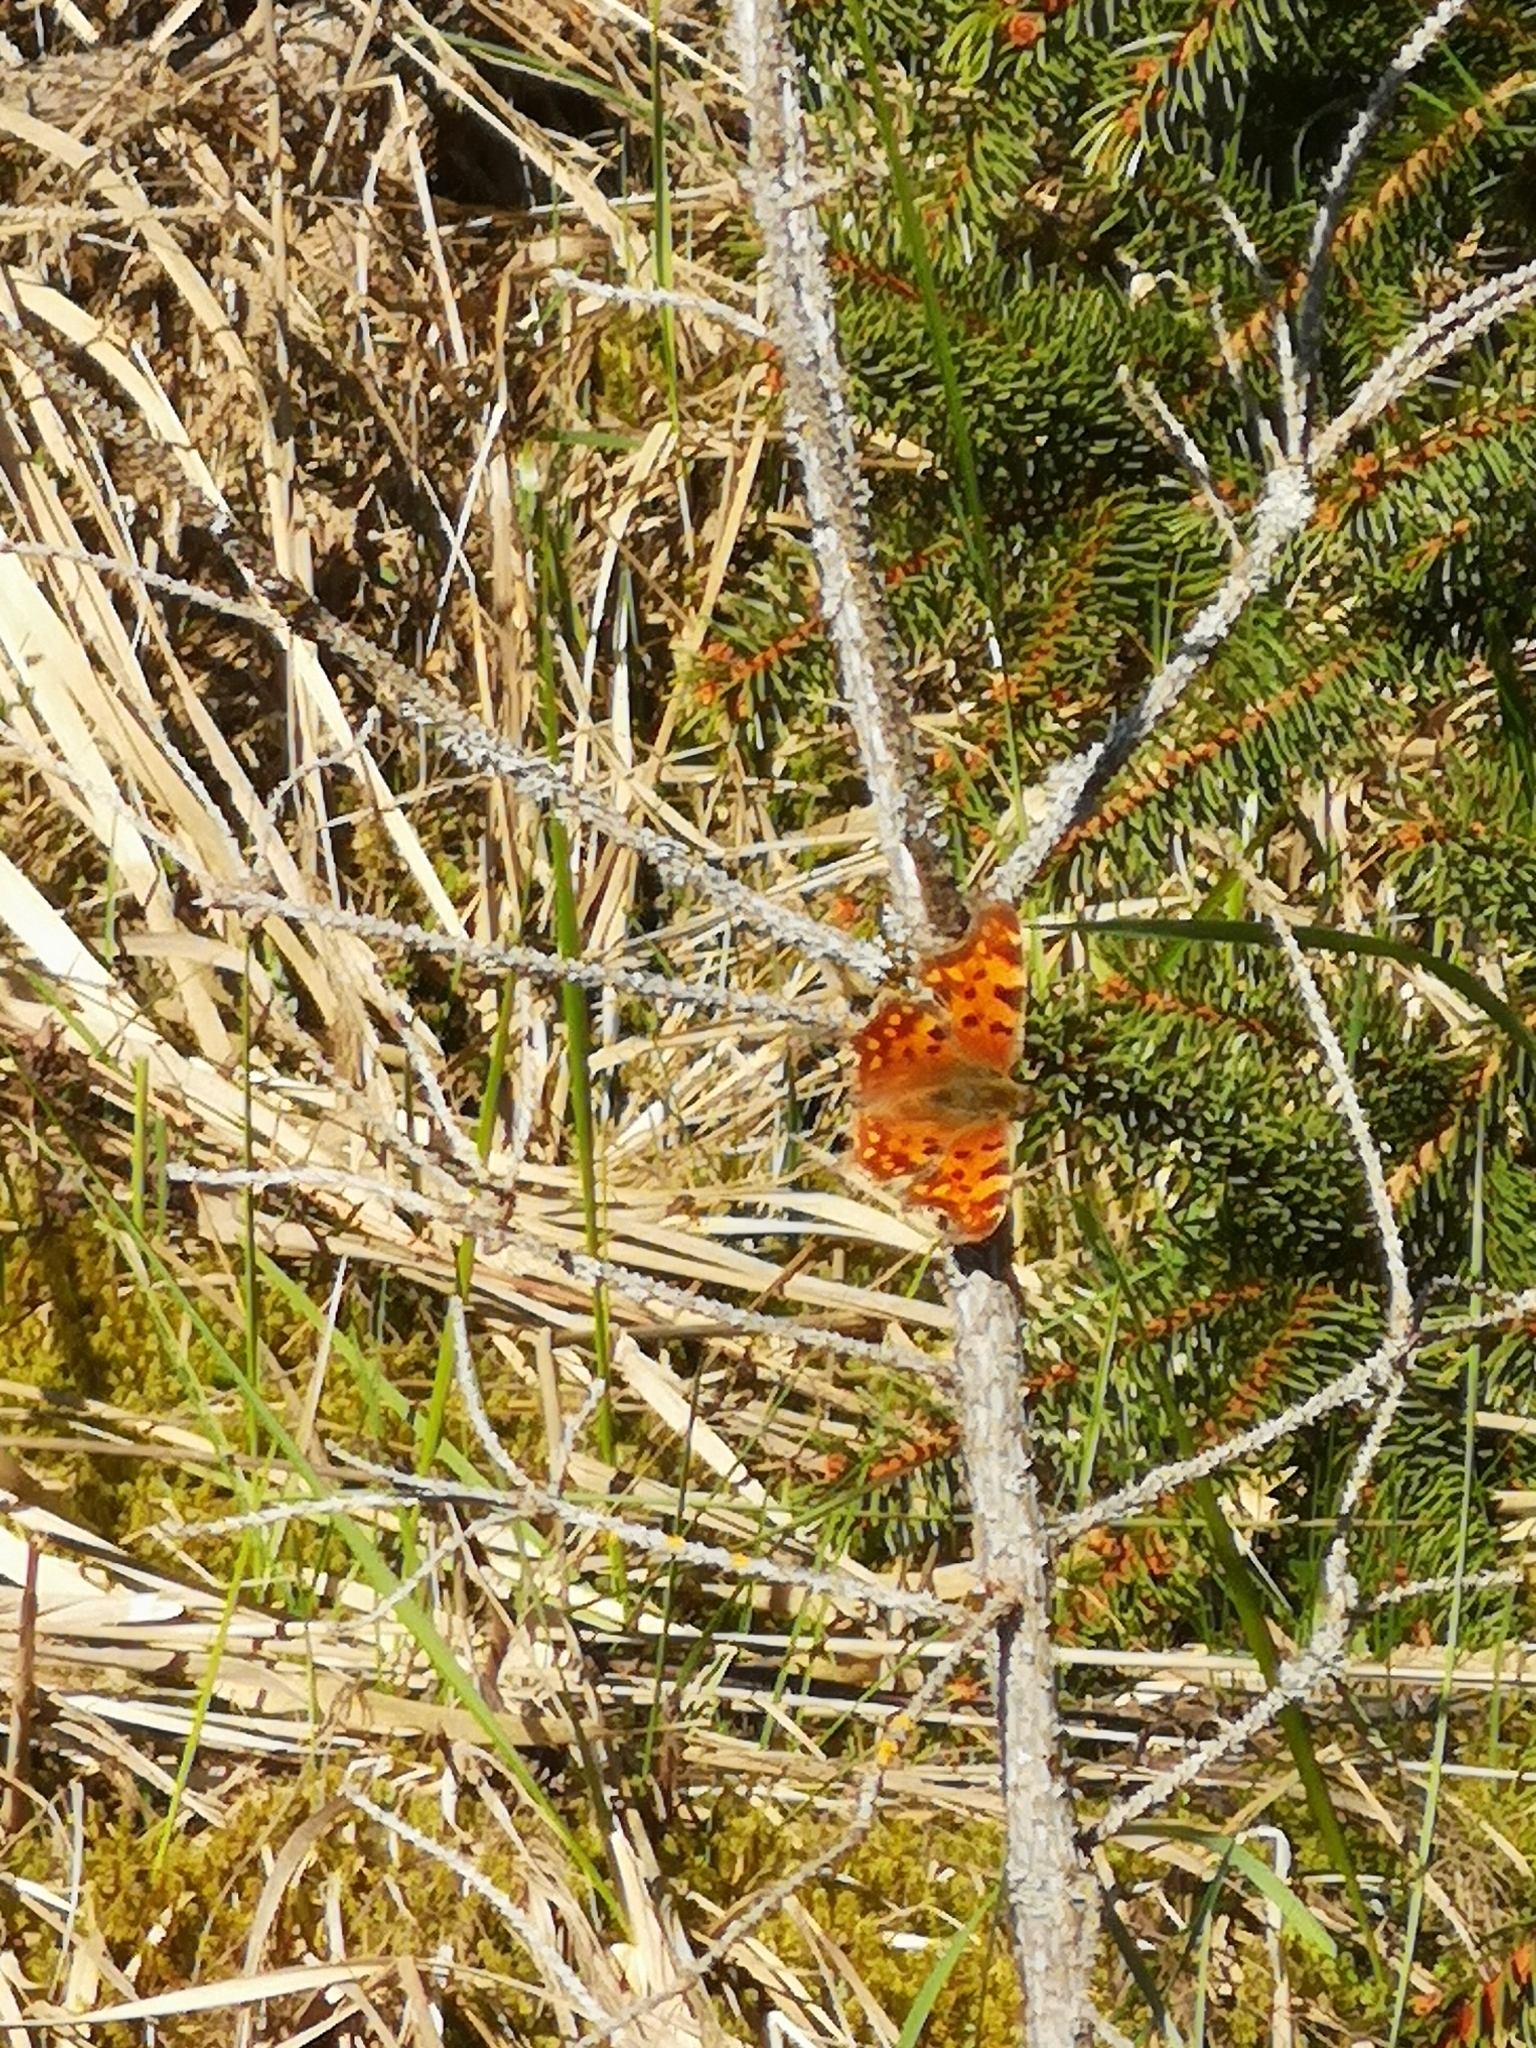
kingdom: Animalia
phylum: Arthropoda
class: Insecta
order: Lepidoptera
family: Nymphalidae
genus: Polygonia
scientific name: Polygonia c-album
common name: Comma
